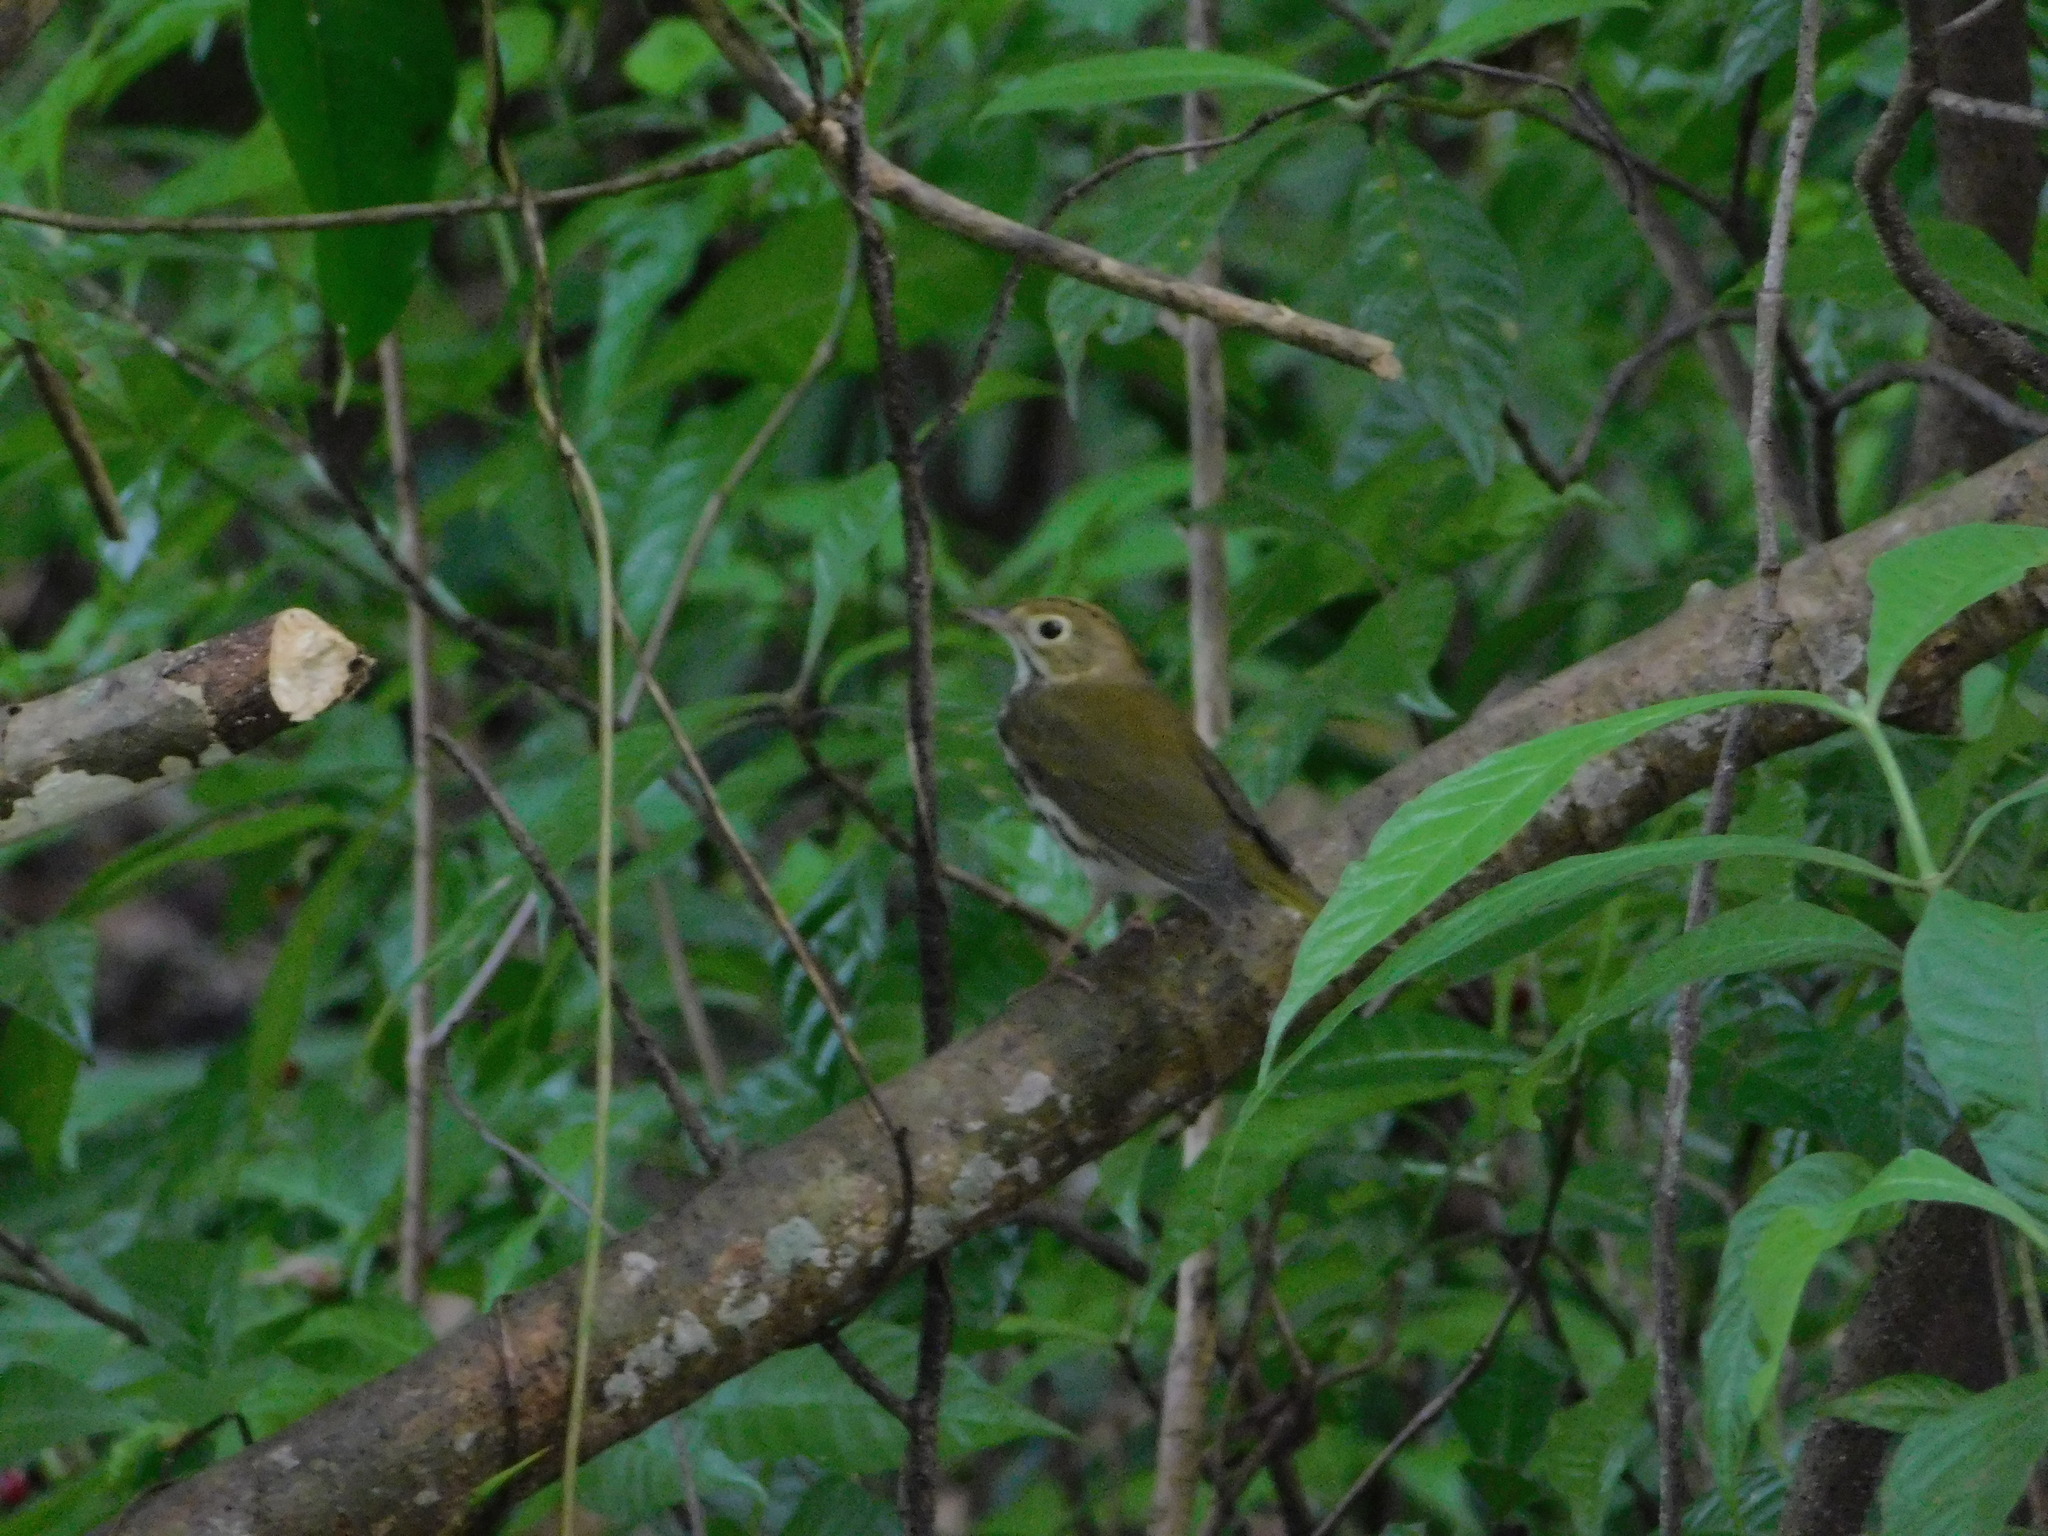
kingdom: Animalia
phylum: Chordata
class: Aves
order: Passeriformes
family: Parulidae
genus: Seiurus
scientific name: Seiurus aurocapilla
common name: Ovenbird
